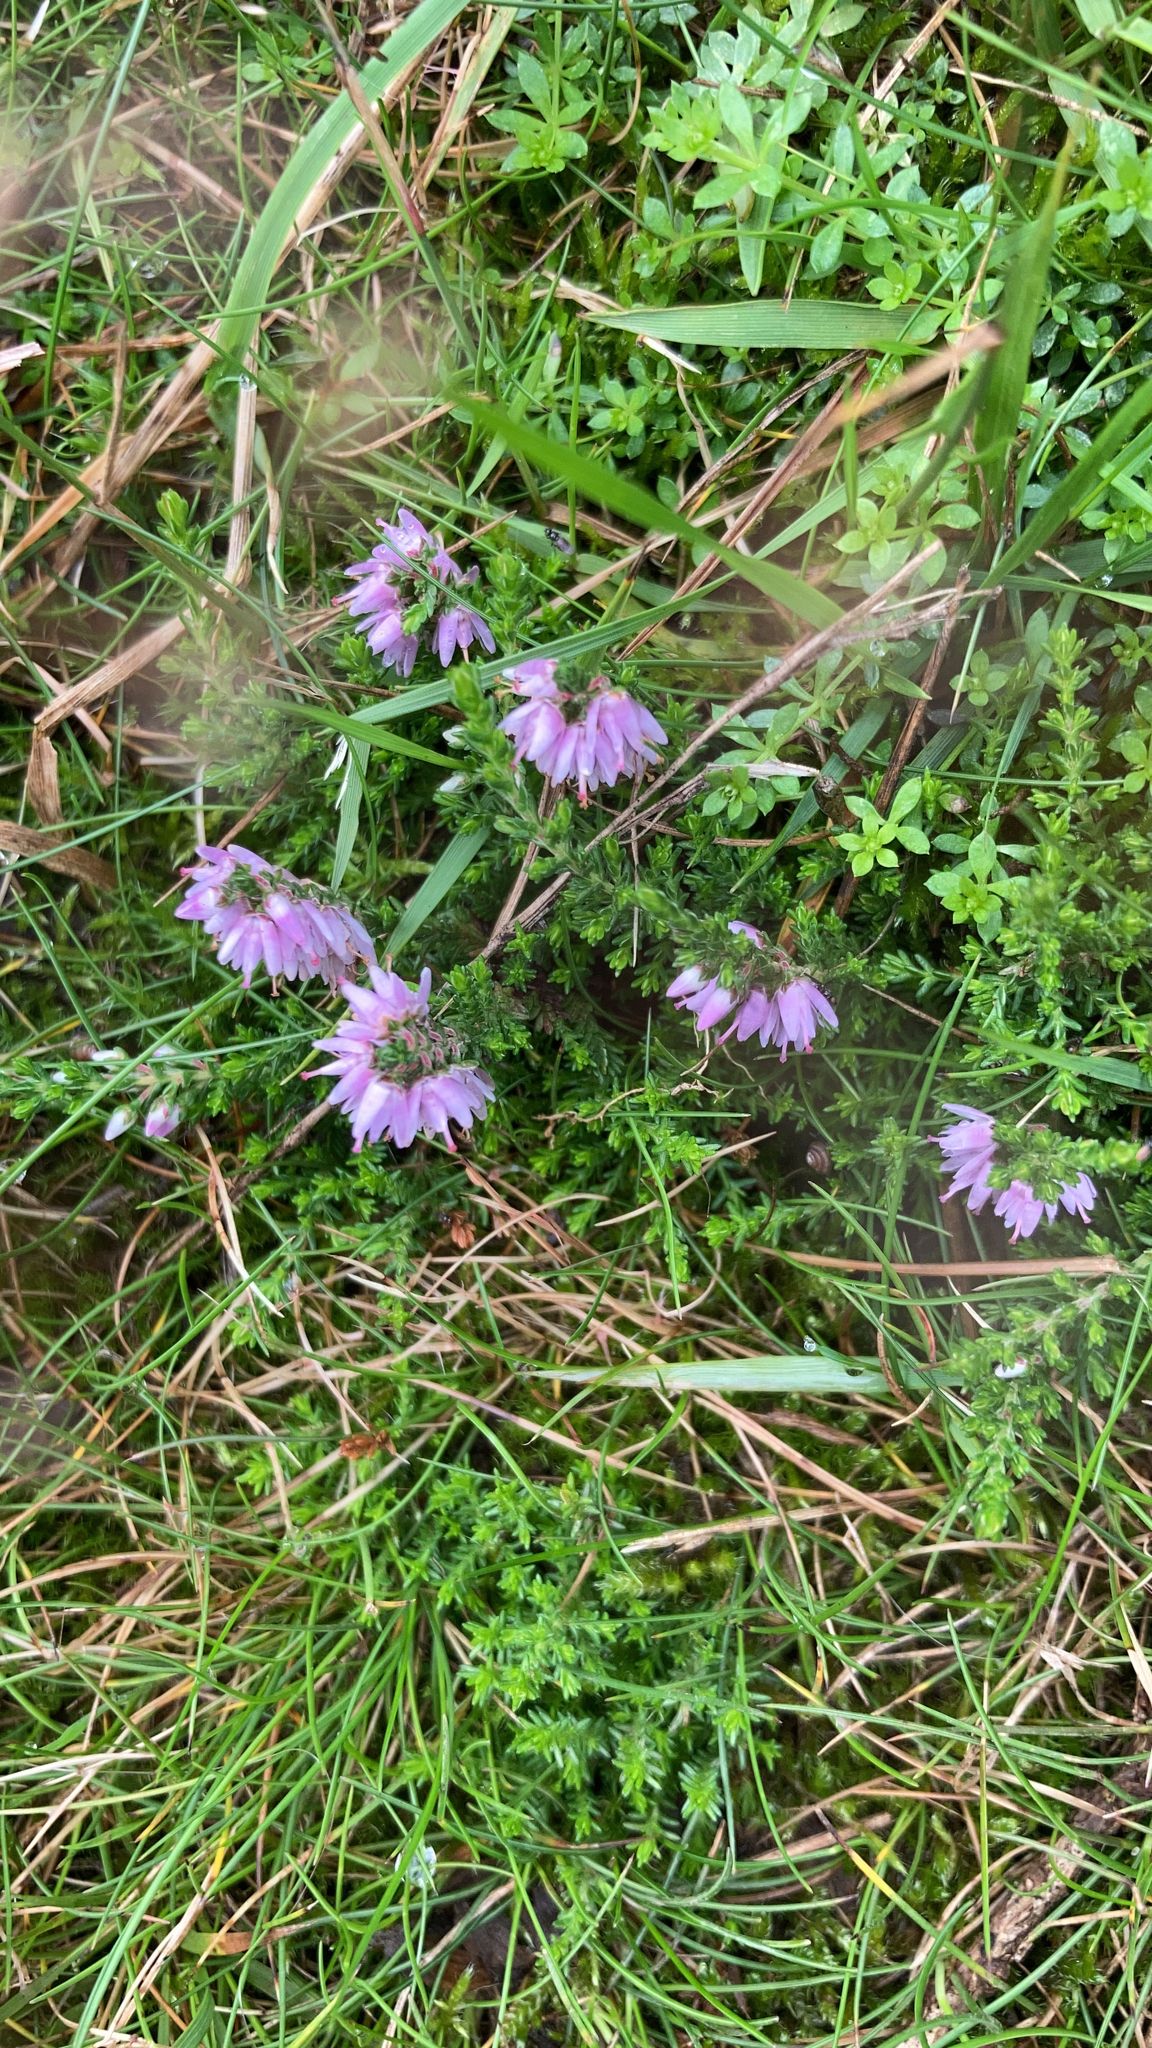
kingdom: Plantae
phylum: Tracheophyta
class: Magnoliopsida
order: Ericales
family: Ericaceae
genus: Calluna
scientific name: Calluna vulgaris
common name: Heather
